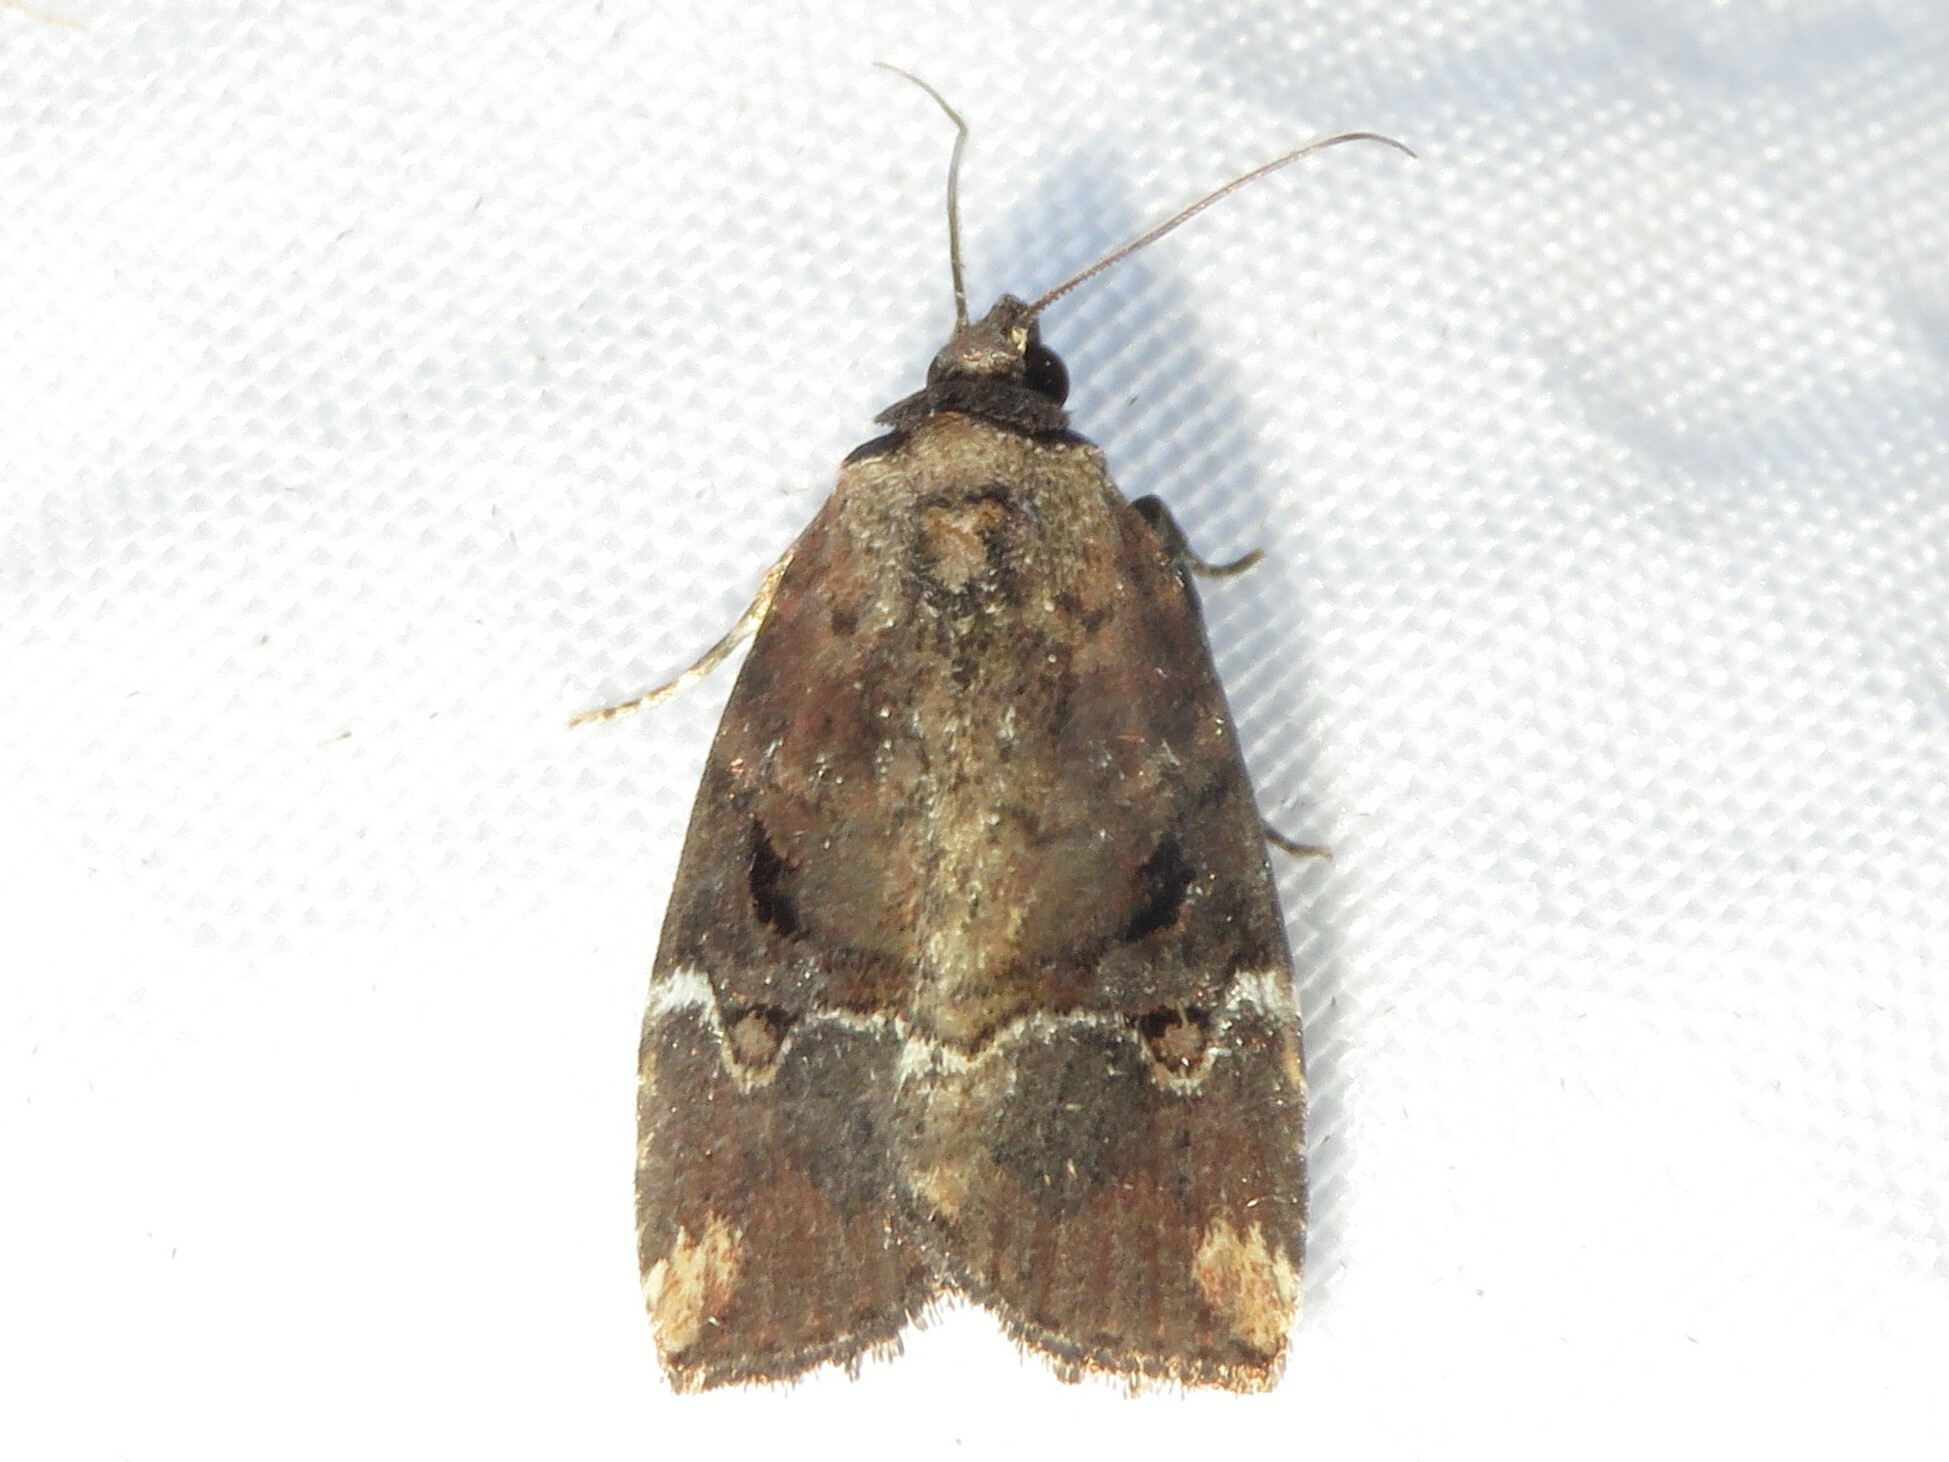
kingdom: Animalia
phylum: Arthropoda
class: Insecta
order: Lepidoptera
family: Noctuidae
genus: Elaphria
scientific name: Elaphria versicolor
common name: Fir harlequin
